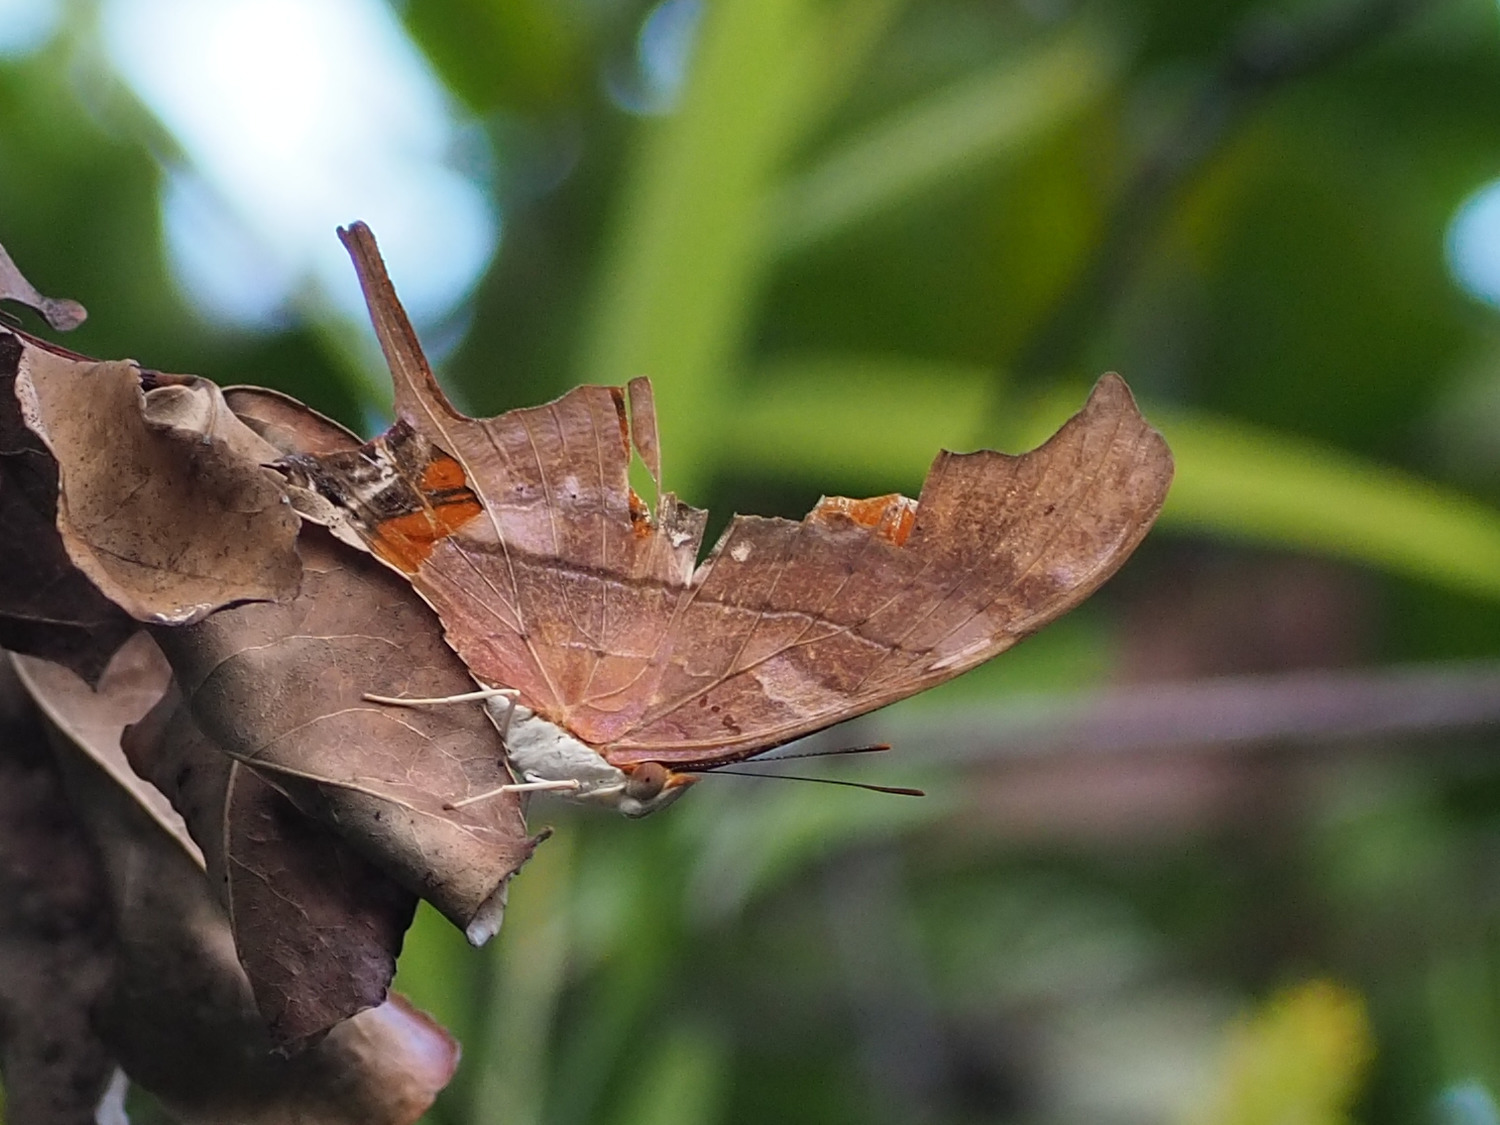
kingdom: Animalia
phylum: Arthropoda
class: Insecta
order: Lepidoptera
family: Nymphalidae
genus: Marpesia
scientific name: Marpesia petreus
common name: Red dagger wing
